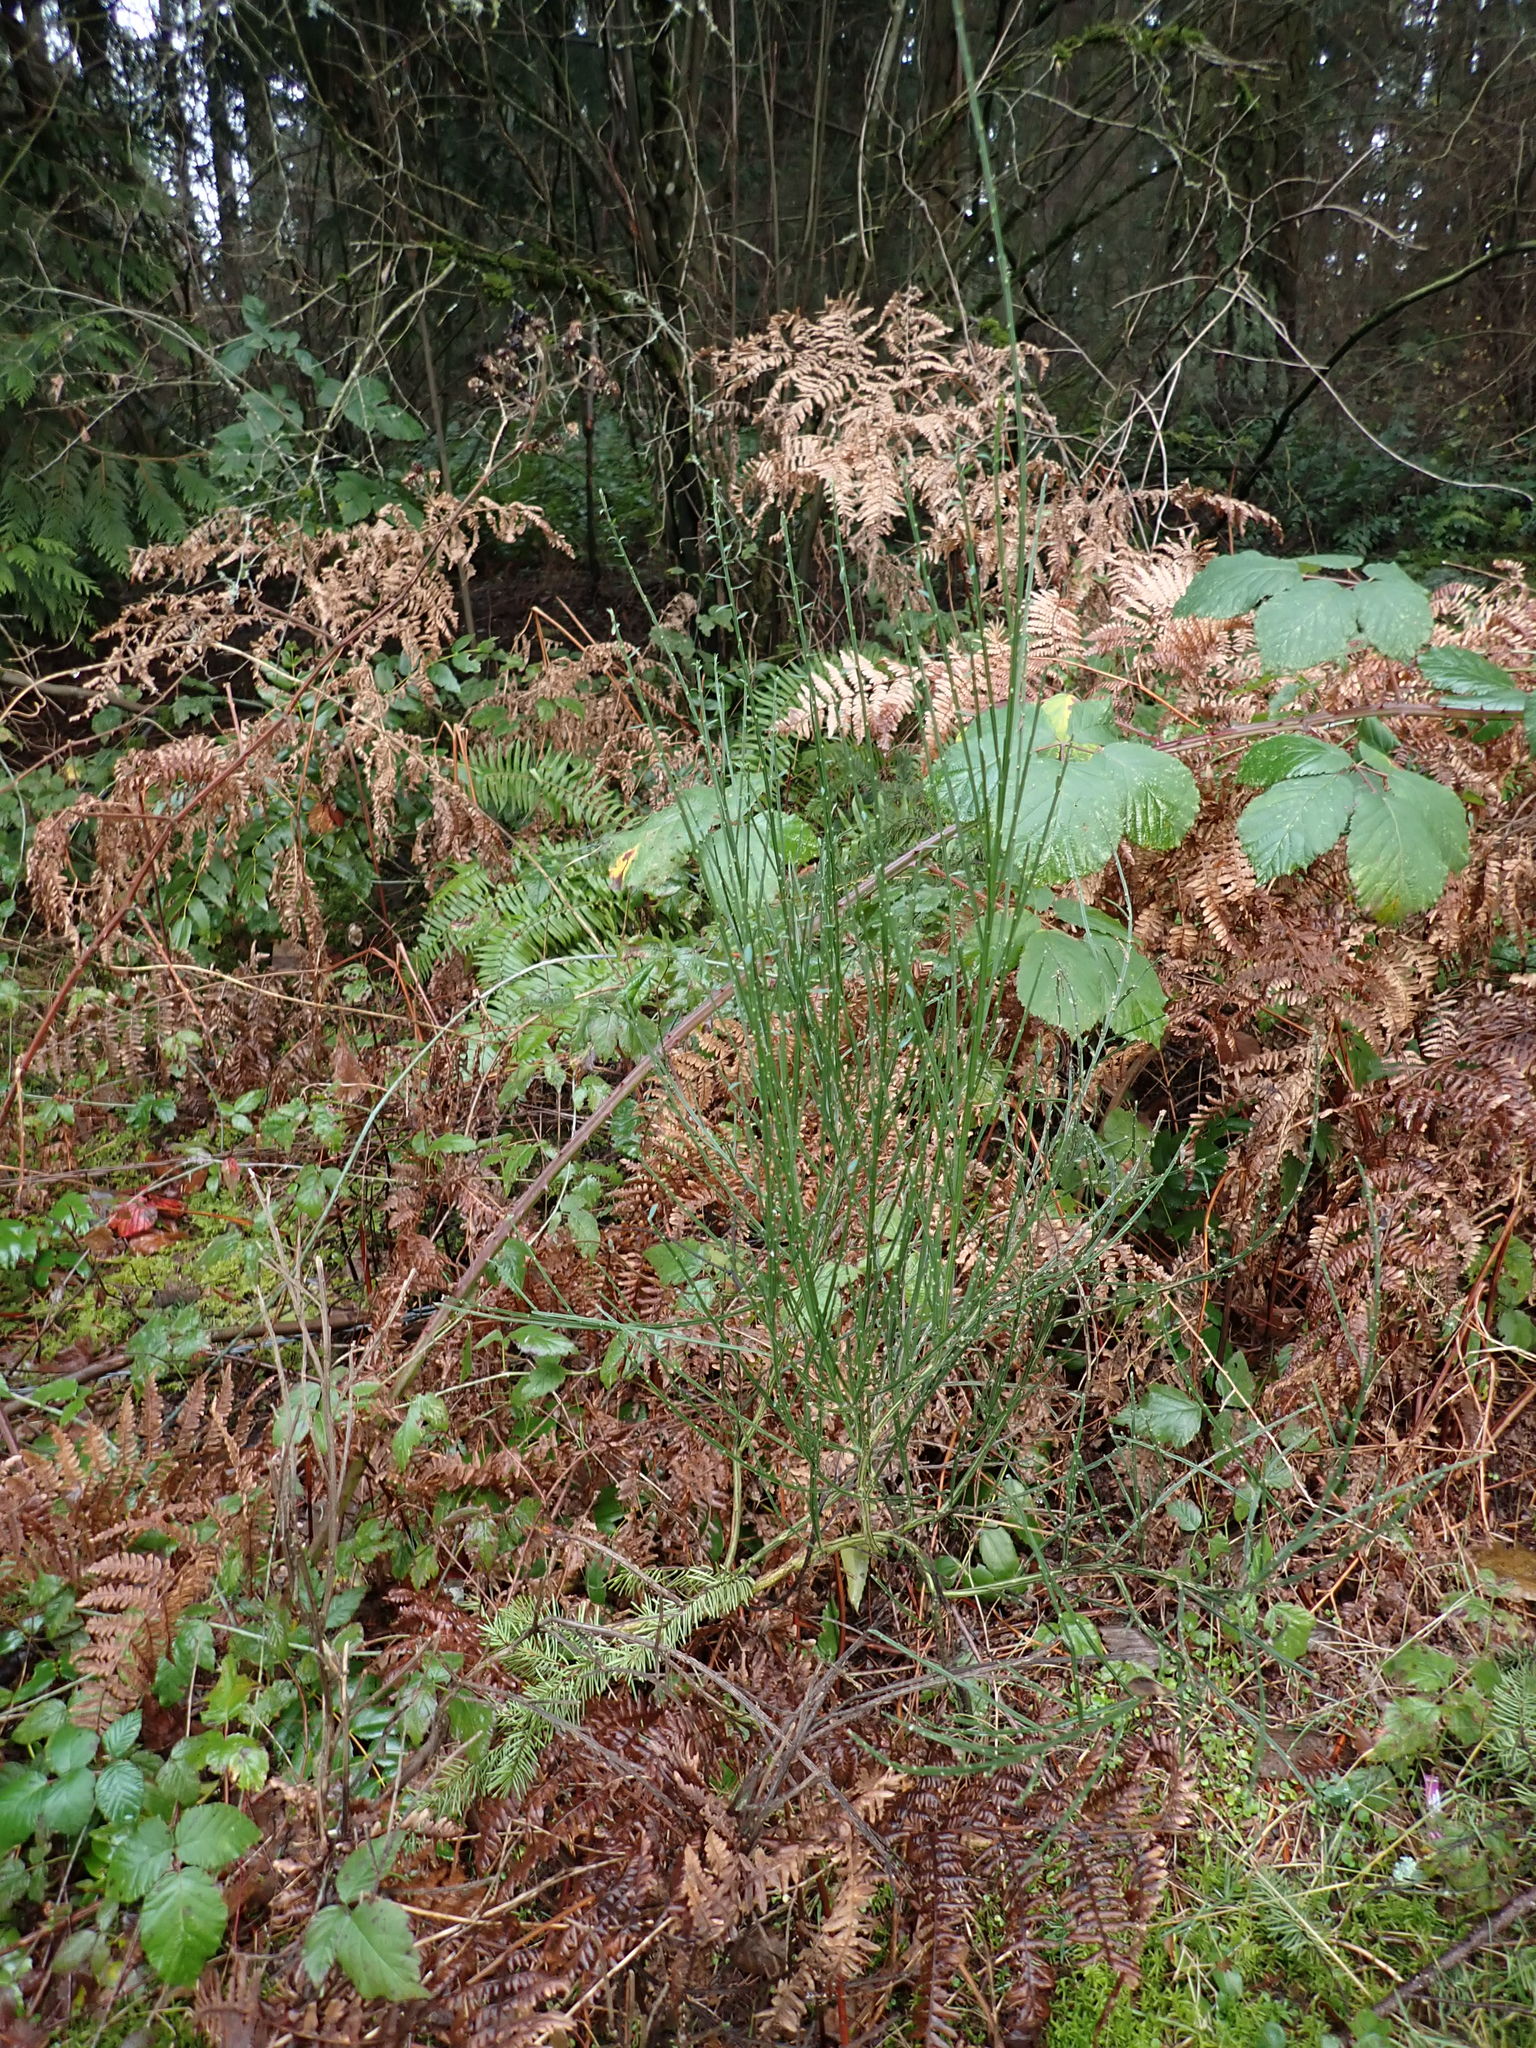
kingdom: Plantae
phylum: Tracheophyta
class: Magnoliopsida
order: Fabales
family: Fabaceae
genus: Cytisus
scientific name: Cytisus scoparius
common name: Scotch broom
